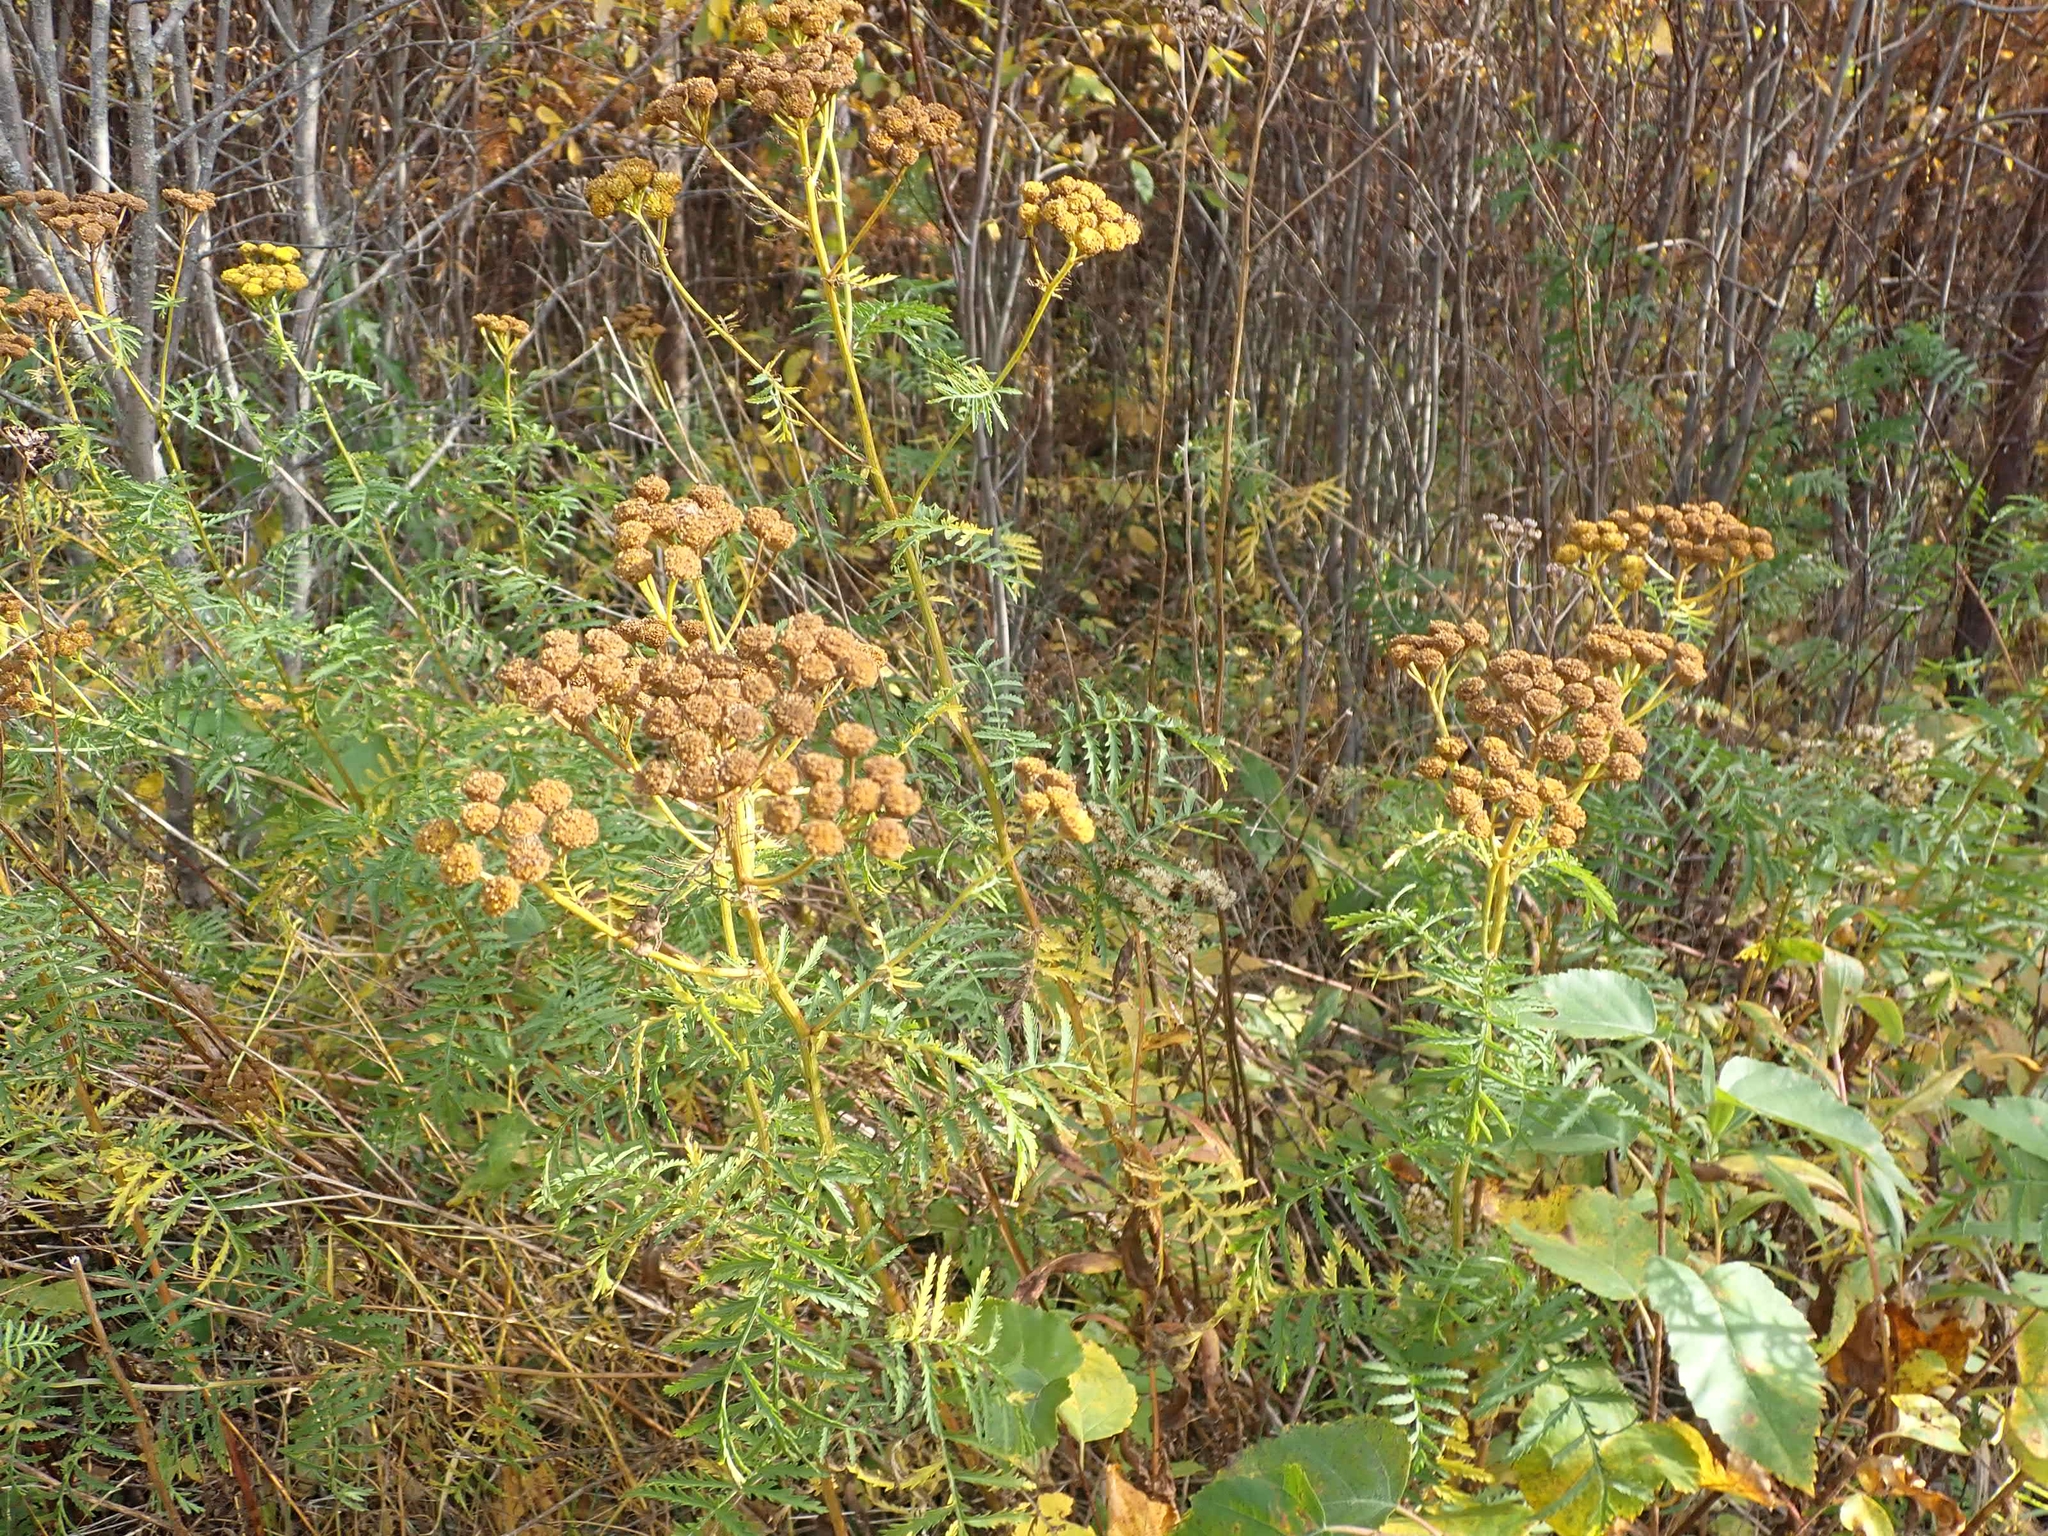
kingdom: Plantae
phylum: Tracheophyta
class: Magnoliopsida
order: Asterales
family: Asteraceae
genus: Tanacetum
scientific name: Tanacetum vulgare
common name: Common tansy
